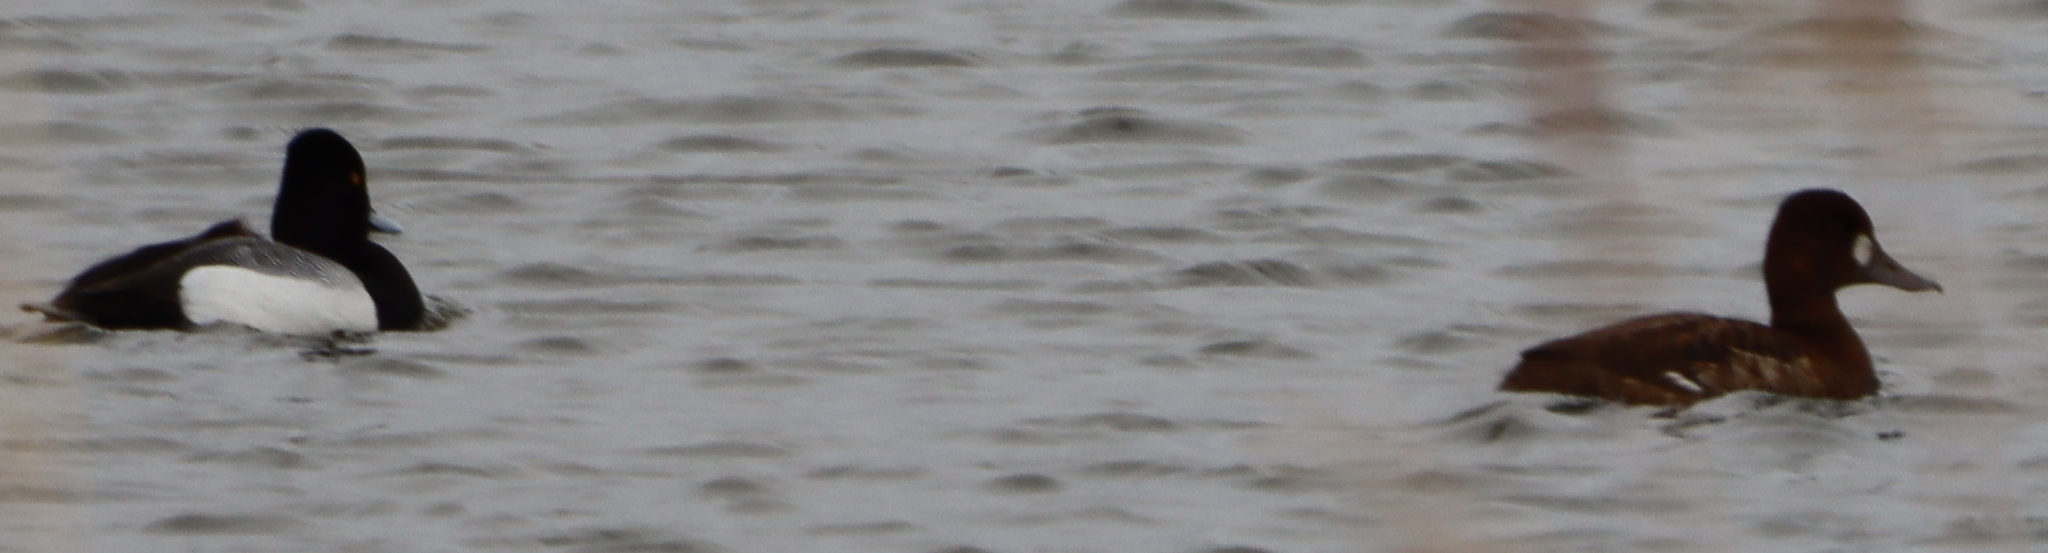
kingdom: Animalia
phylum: Chordata
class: Aves
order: Anseriformes
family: Anatidae
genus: Aythya
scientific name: Aythya affinis
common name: Lesser scaup
